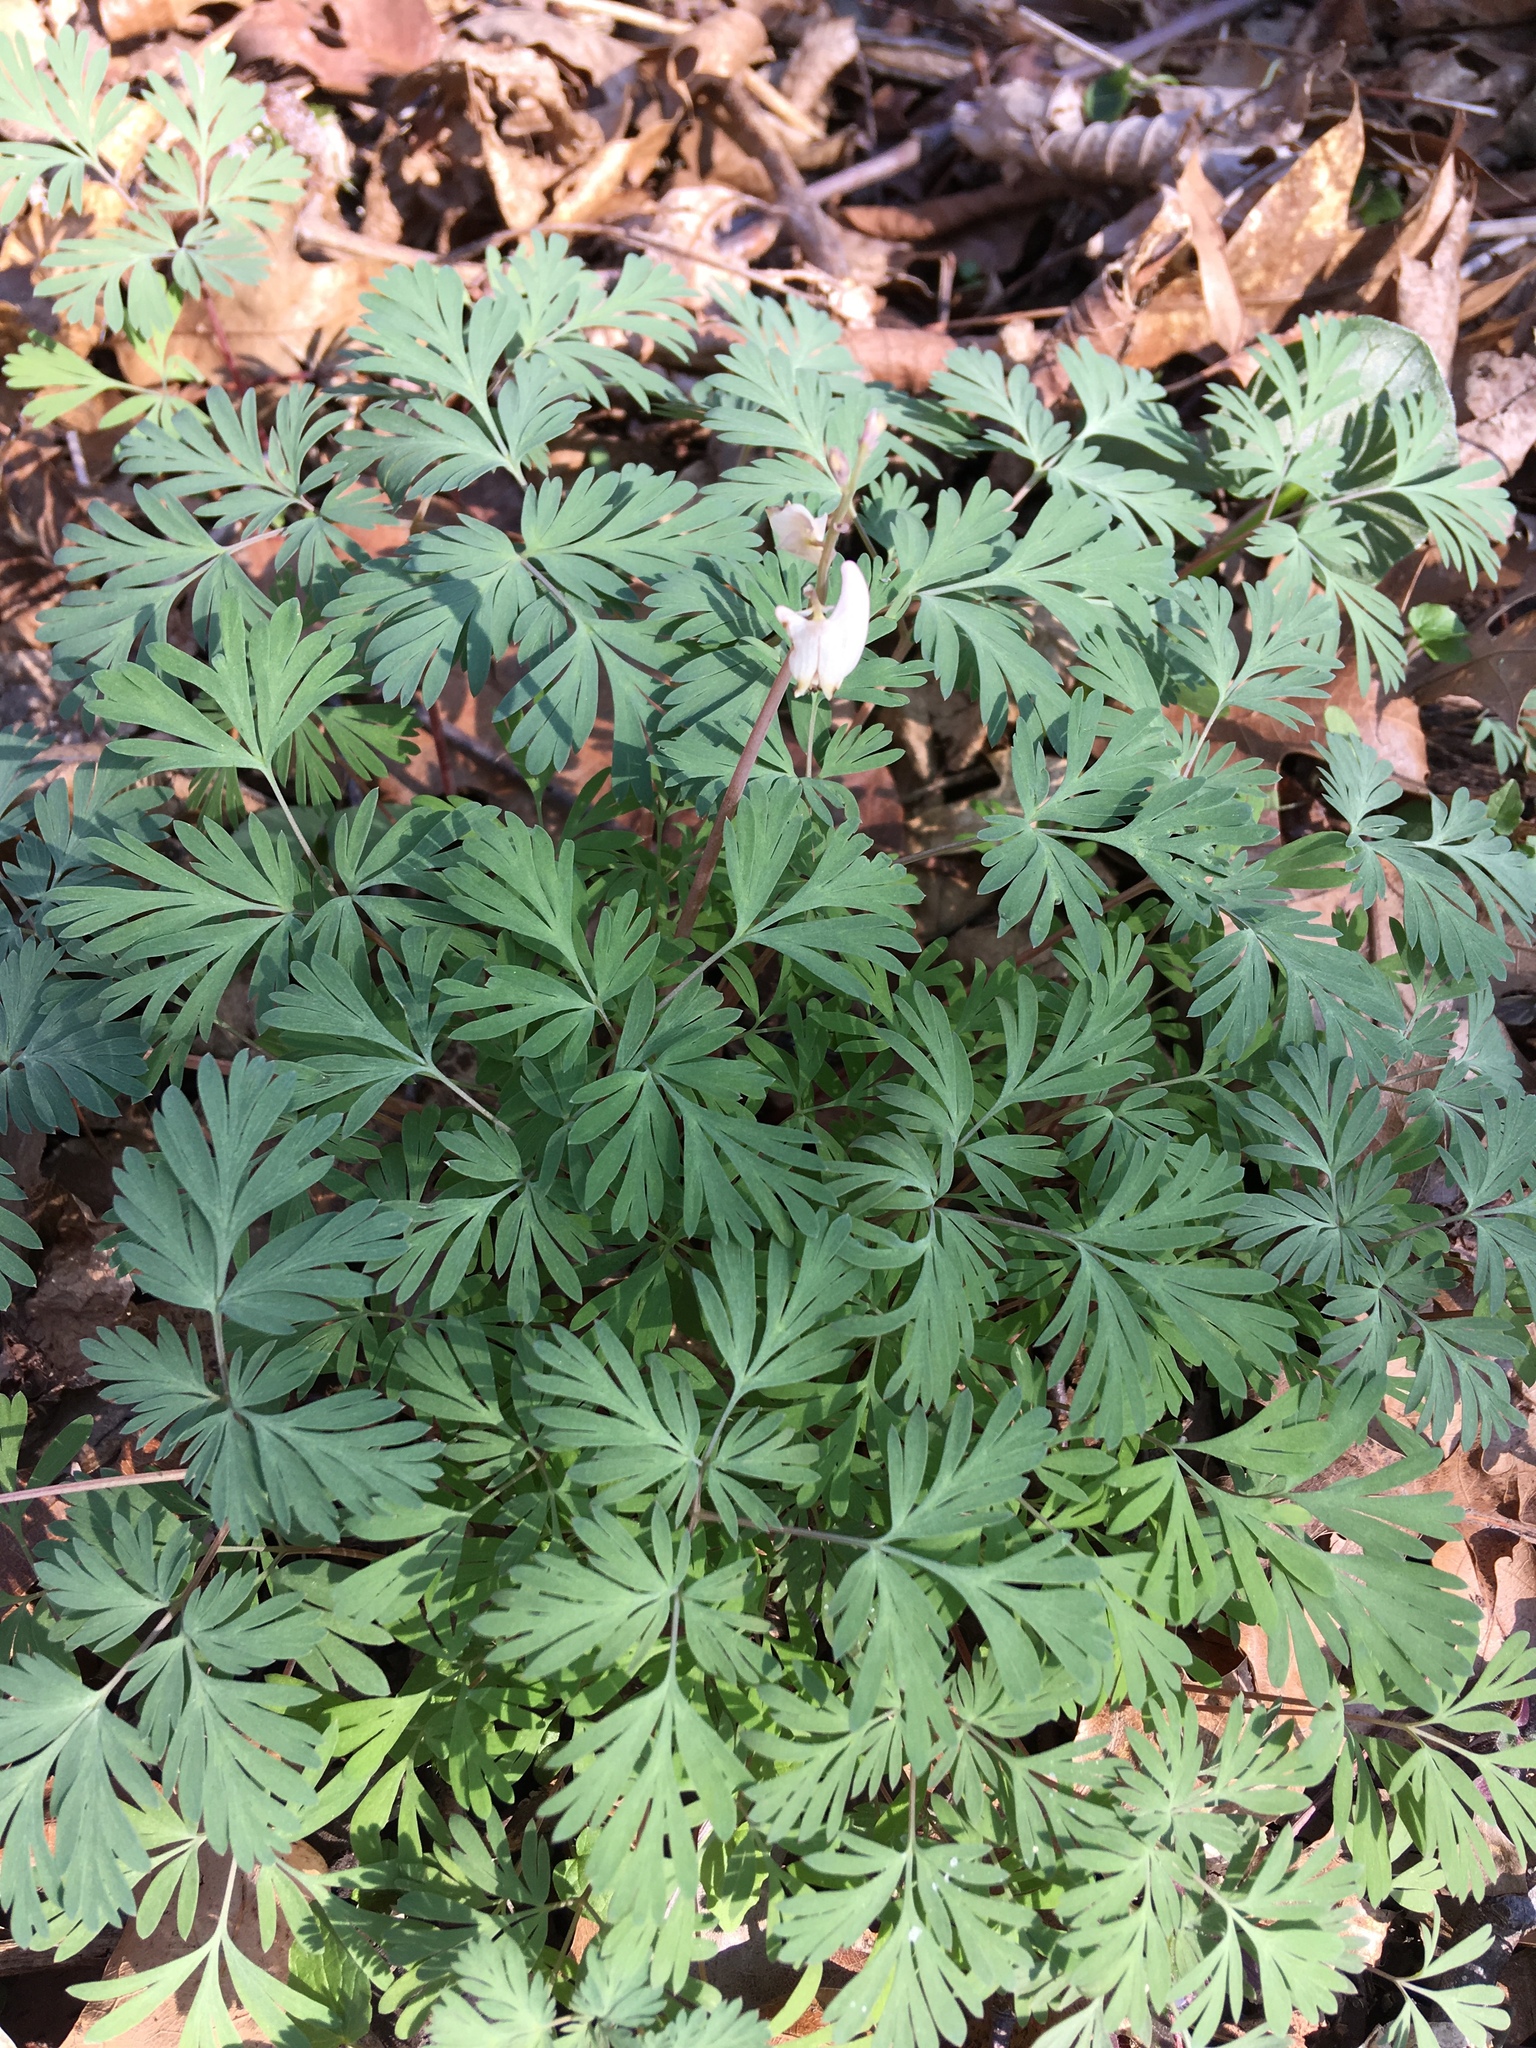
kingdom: Plantae
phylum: Tracheophyta
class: Magnoliopsida
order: Ranunculales
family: Papaveraceae
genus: Dicentra
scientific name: Dicentra cucullaria
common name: Dutchman's breeches
